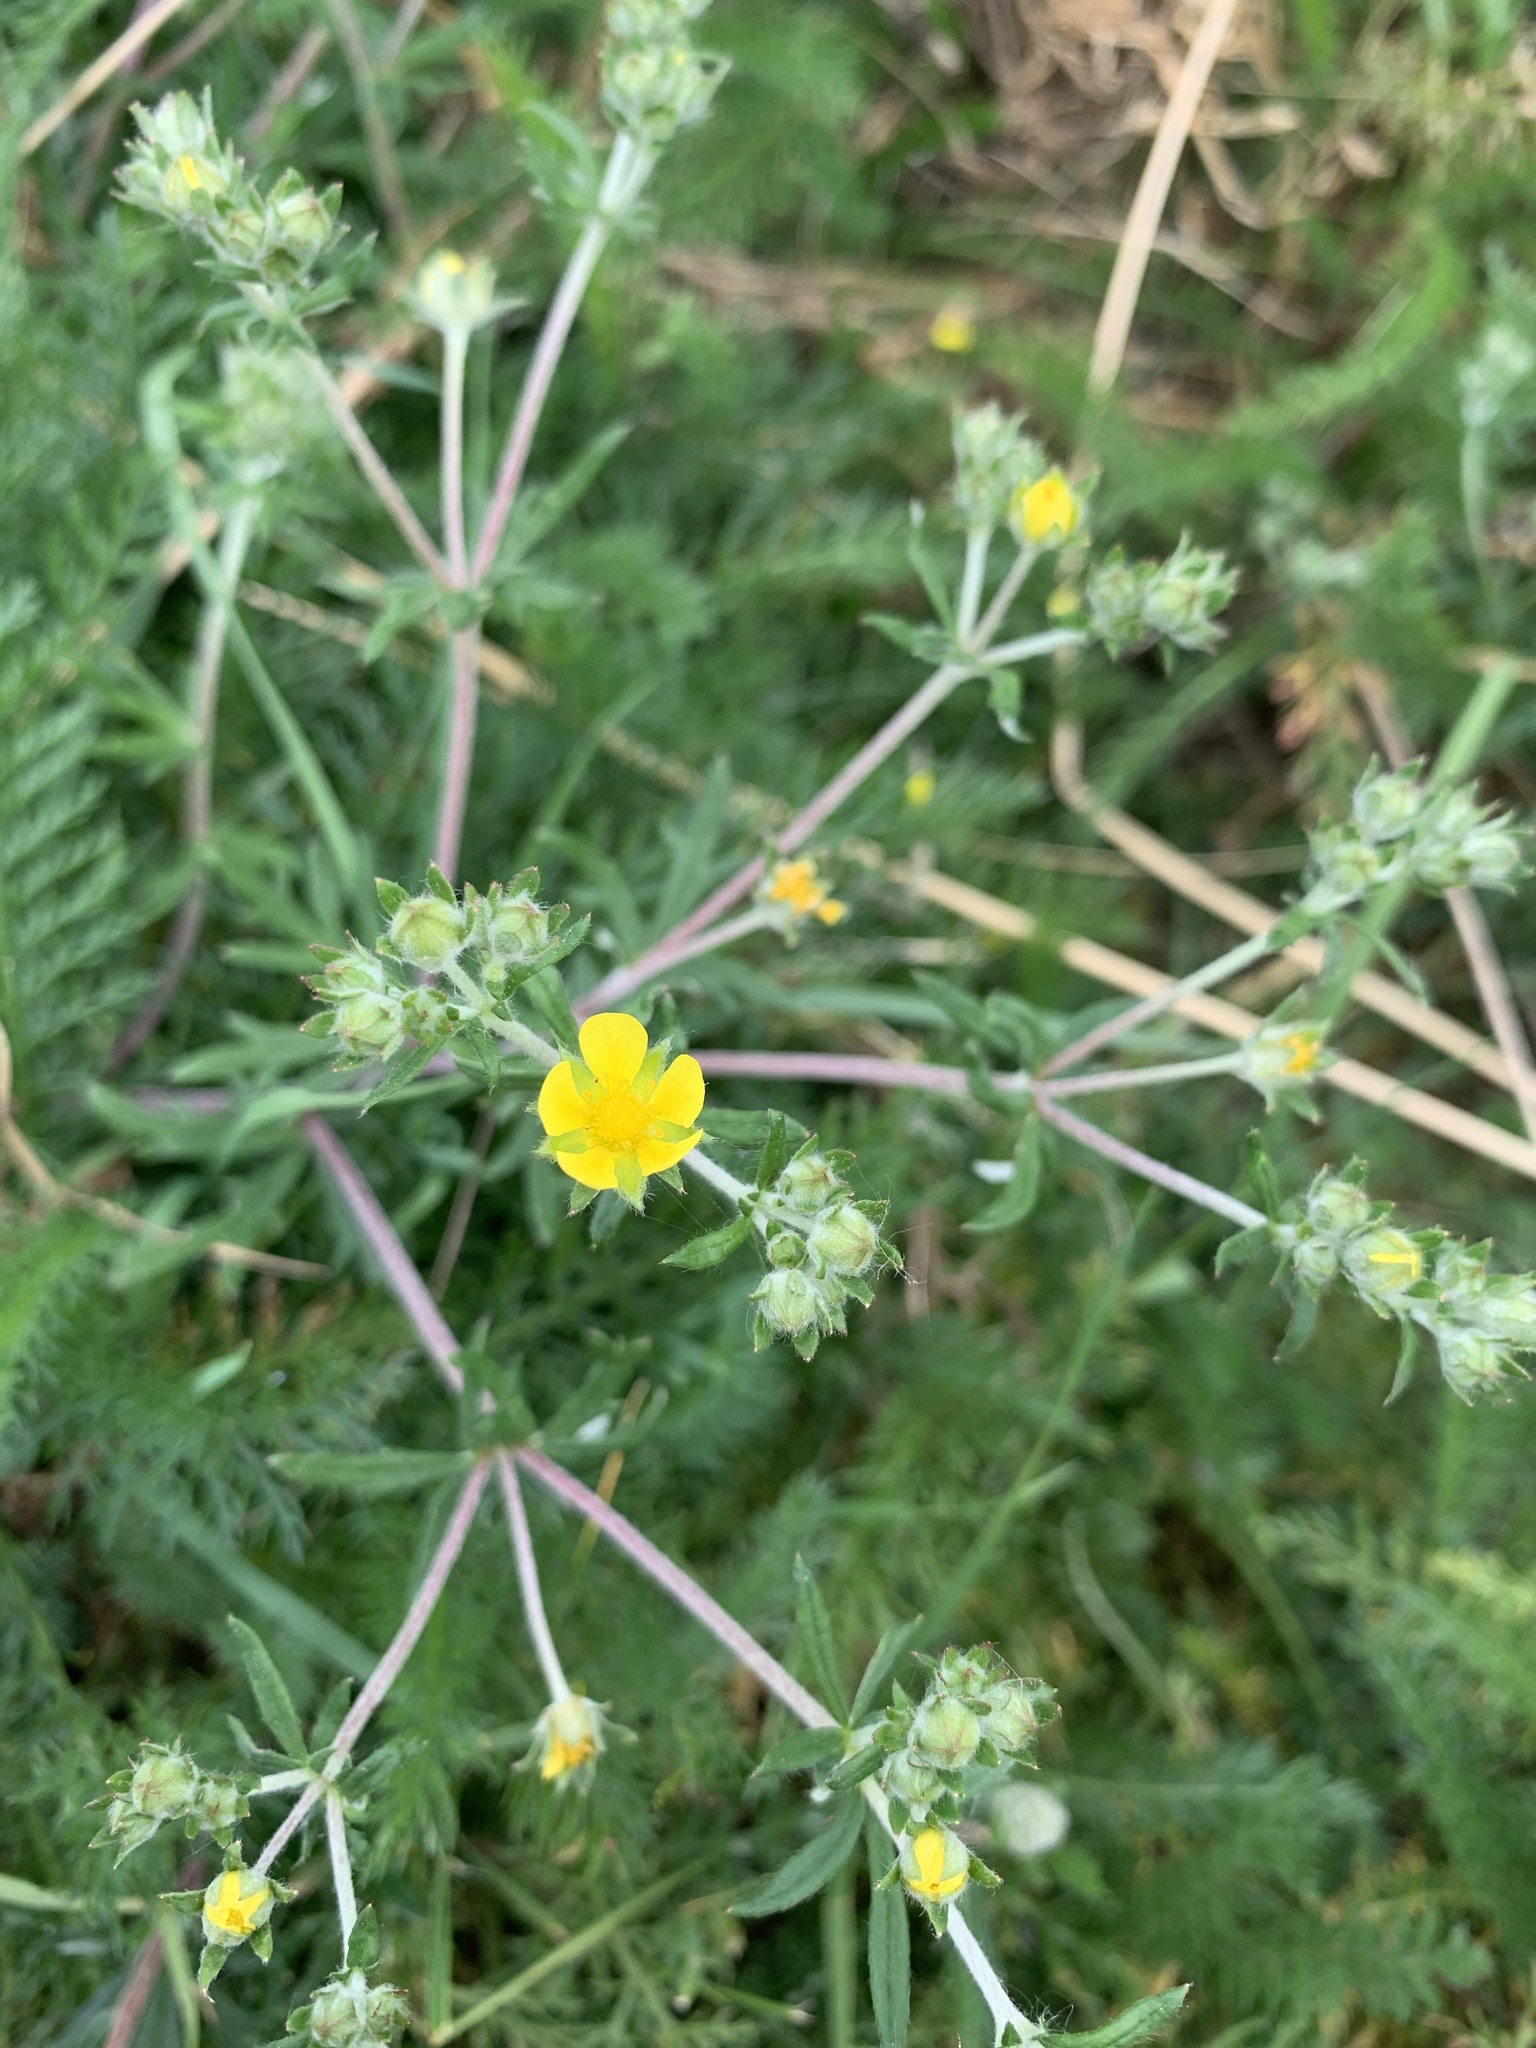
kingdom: Plantae
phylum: Tracheophyta
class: Magnoliopsida
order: Rosales
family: Rosaceae
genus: Potentilla
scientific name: Potentilla argentea
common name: Hoary cinquefoil
